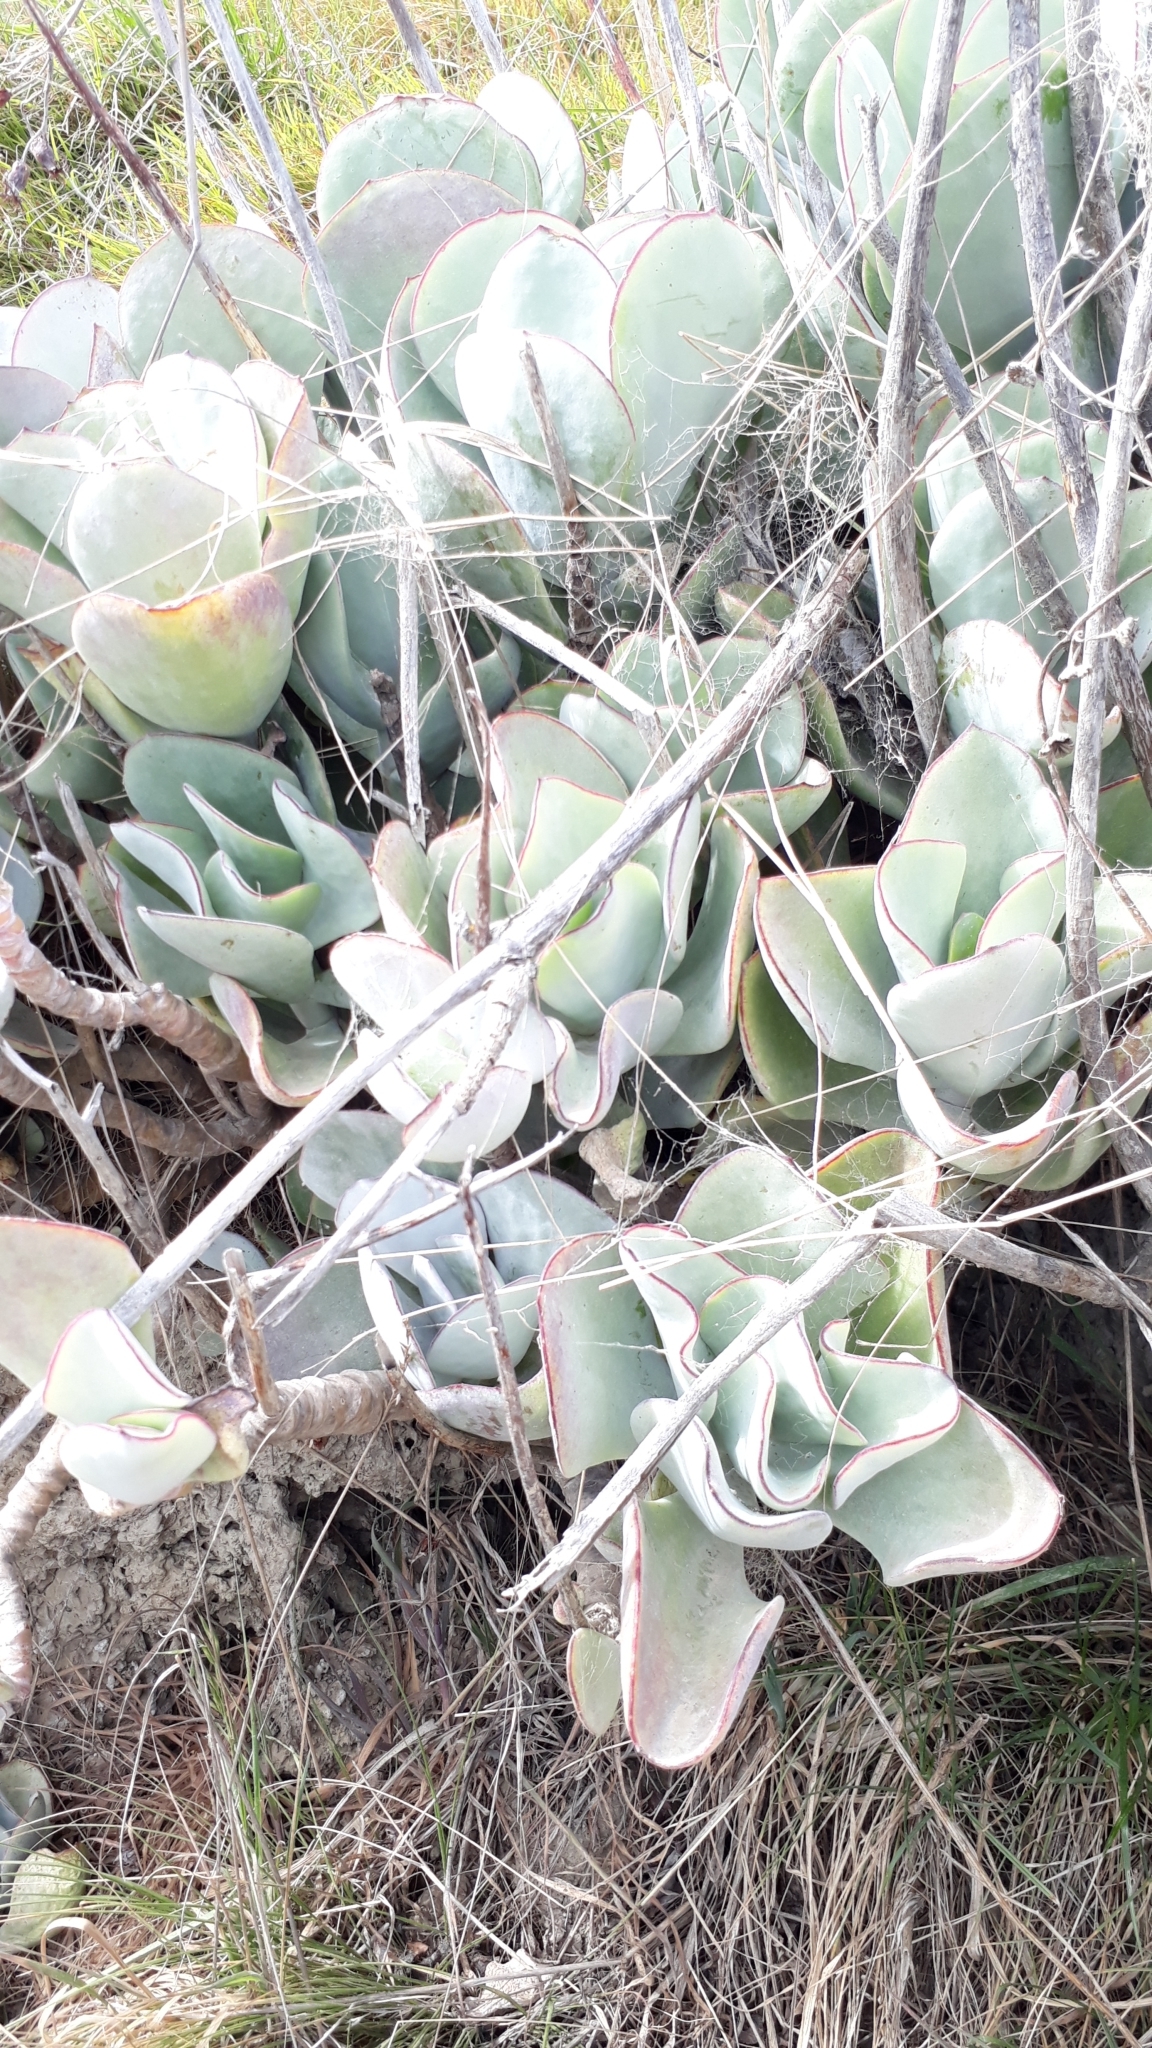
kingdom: Plantae
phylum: Tracheophyta
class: Magnoliopsida
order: Saxifragales
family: Crassulaceae
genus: Cotyledon
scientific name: Cotyledon orbiculata
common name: Pig's ear
